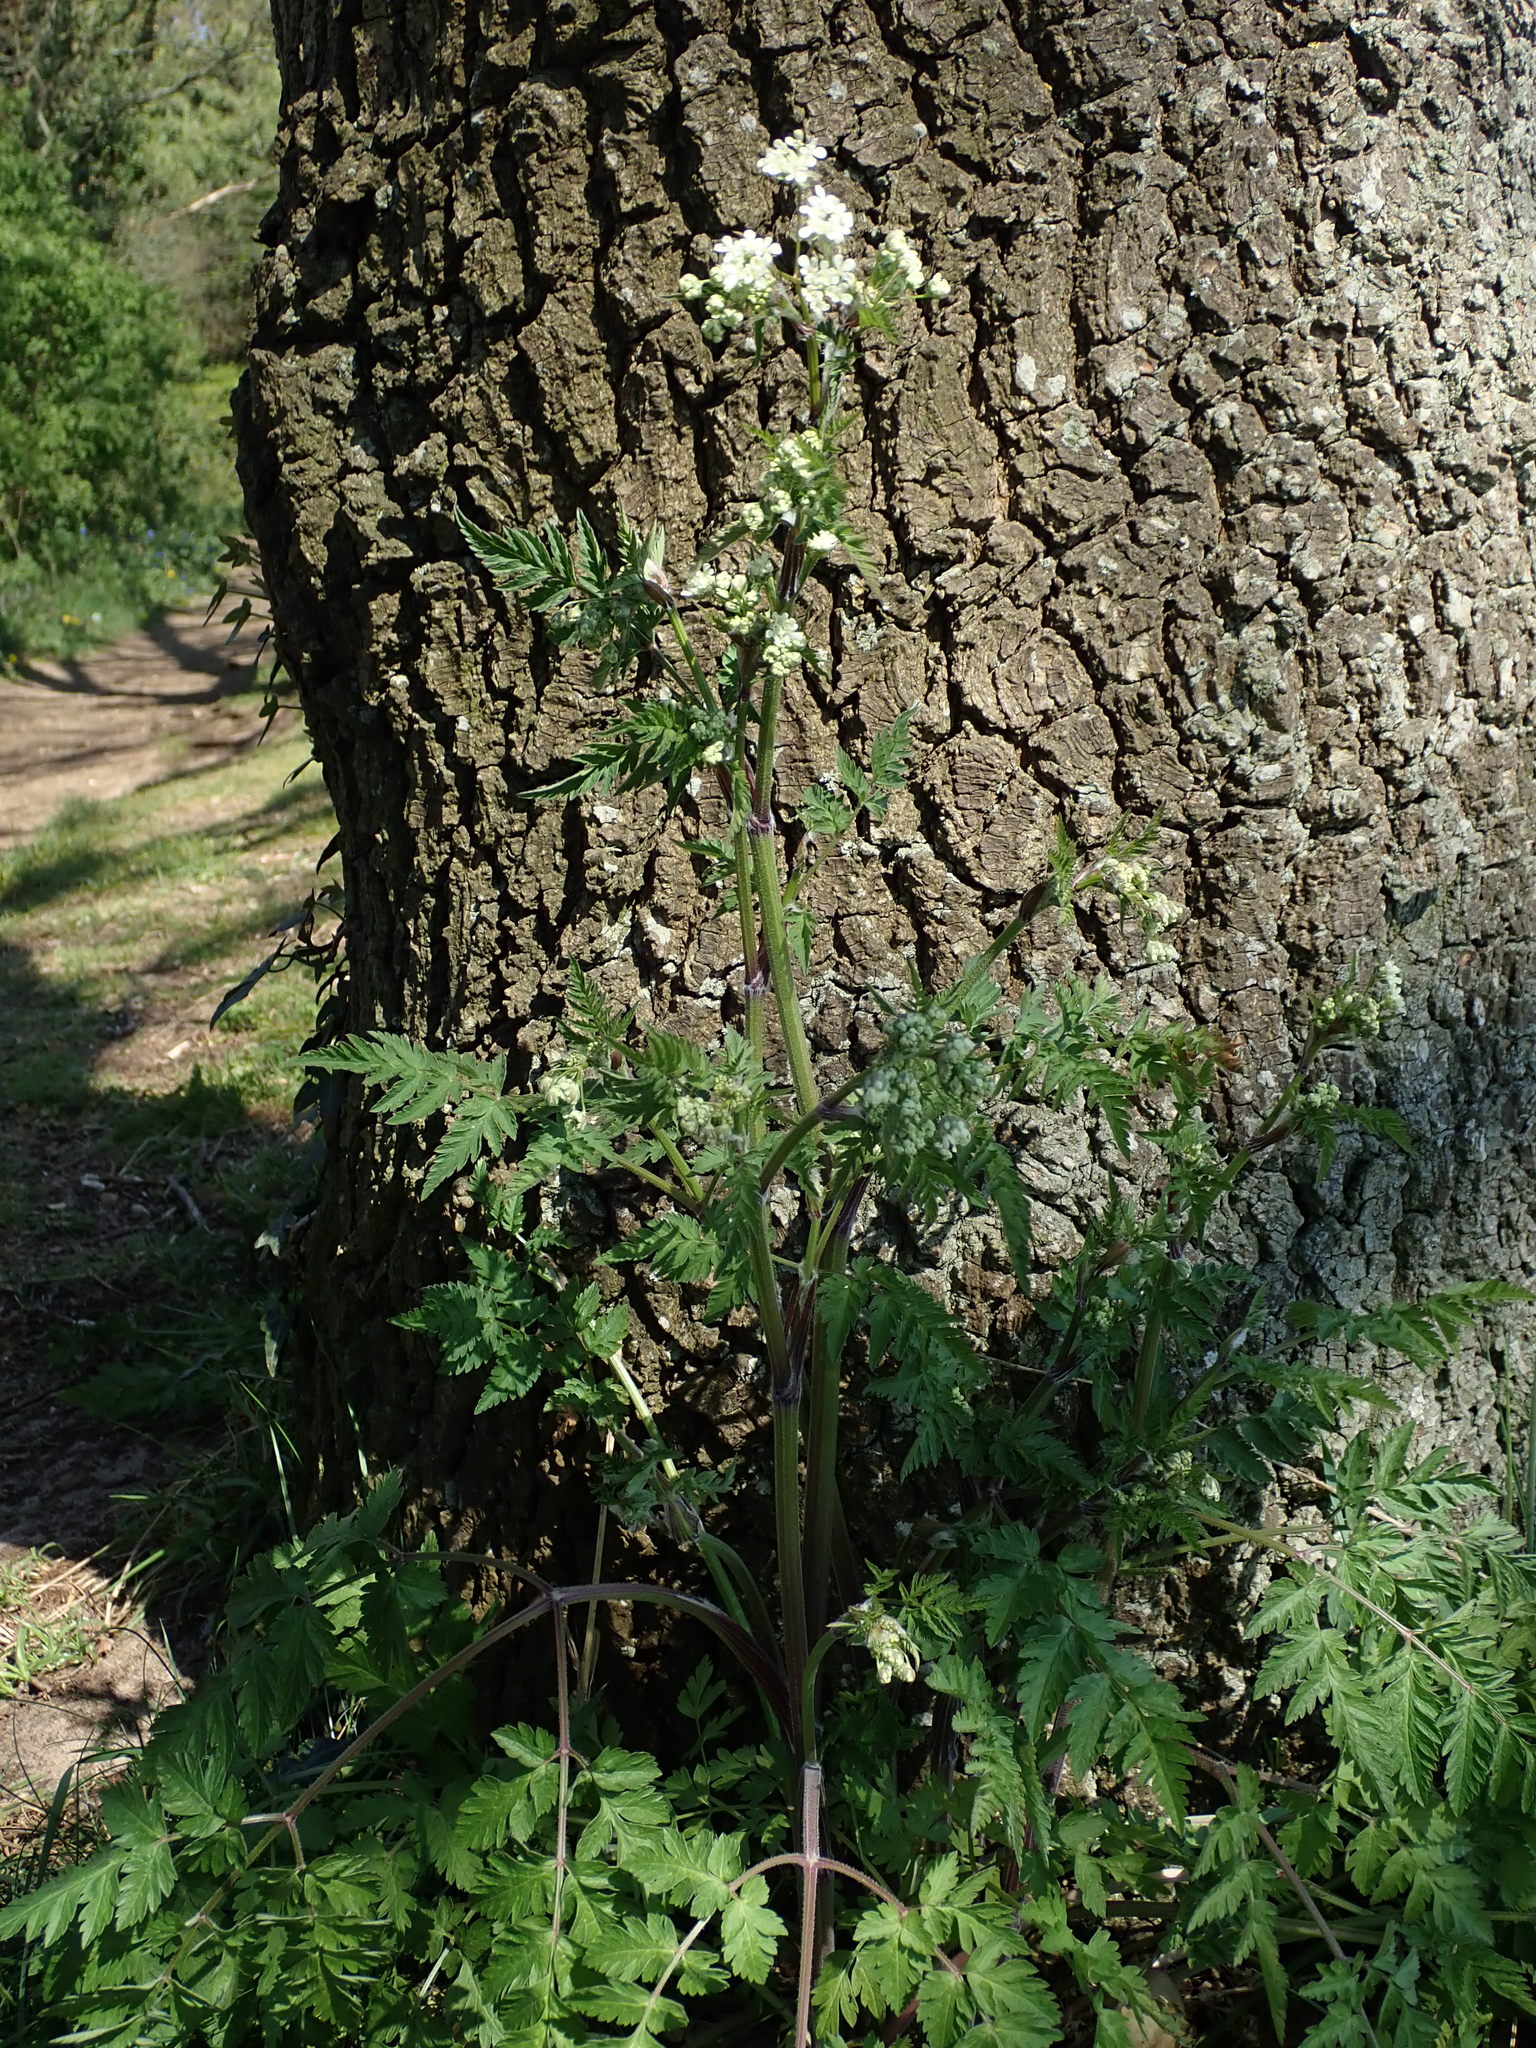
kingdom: Plantae
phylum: Tracheophyta
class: Magnoliopsida
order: Apiales
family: Apiaceae
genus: Anthriscus
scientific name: Anthriscus sylvestris
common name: Cow parsley
